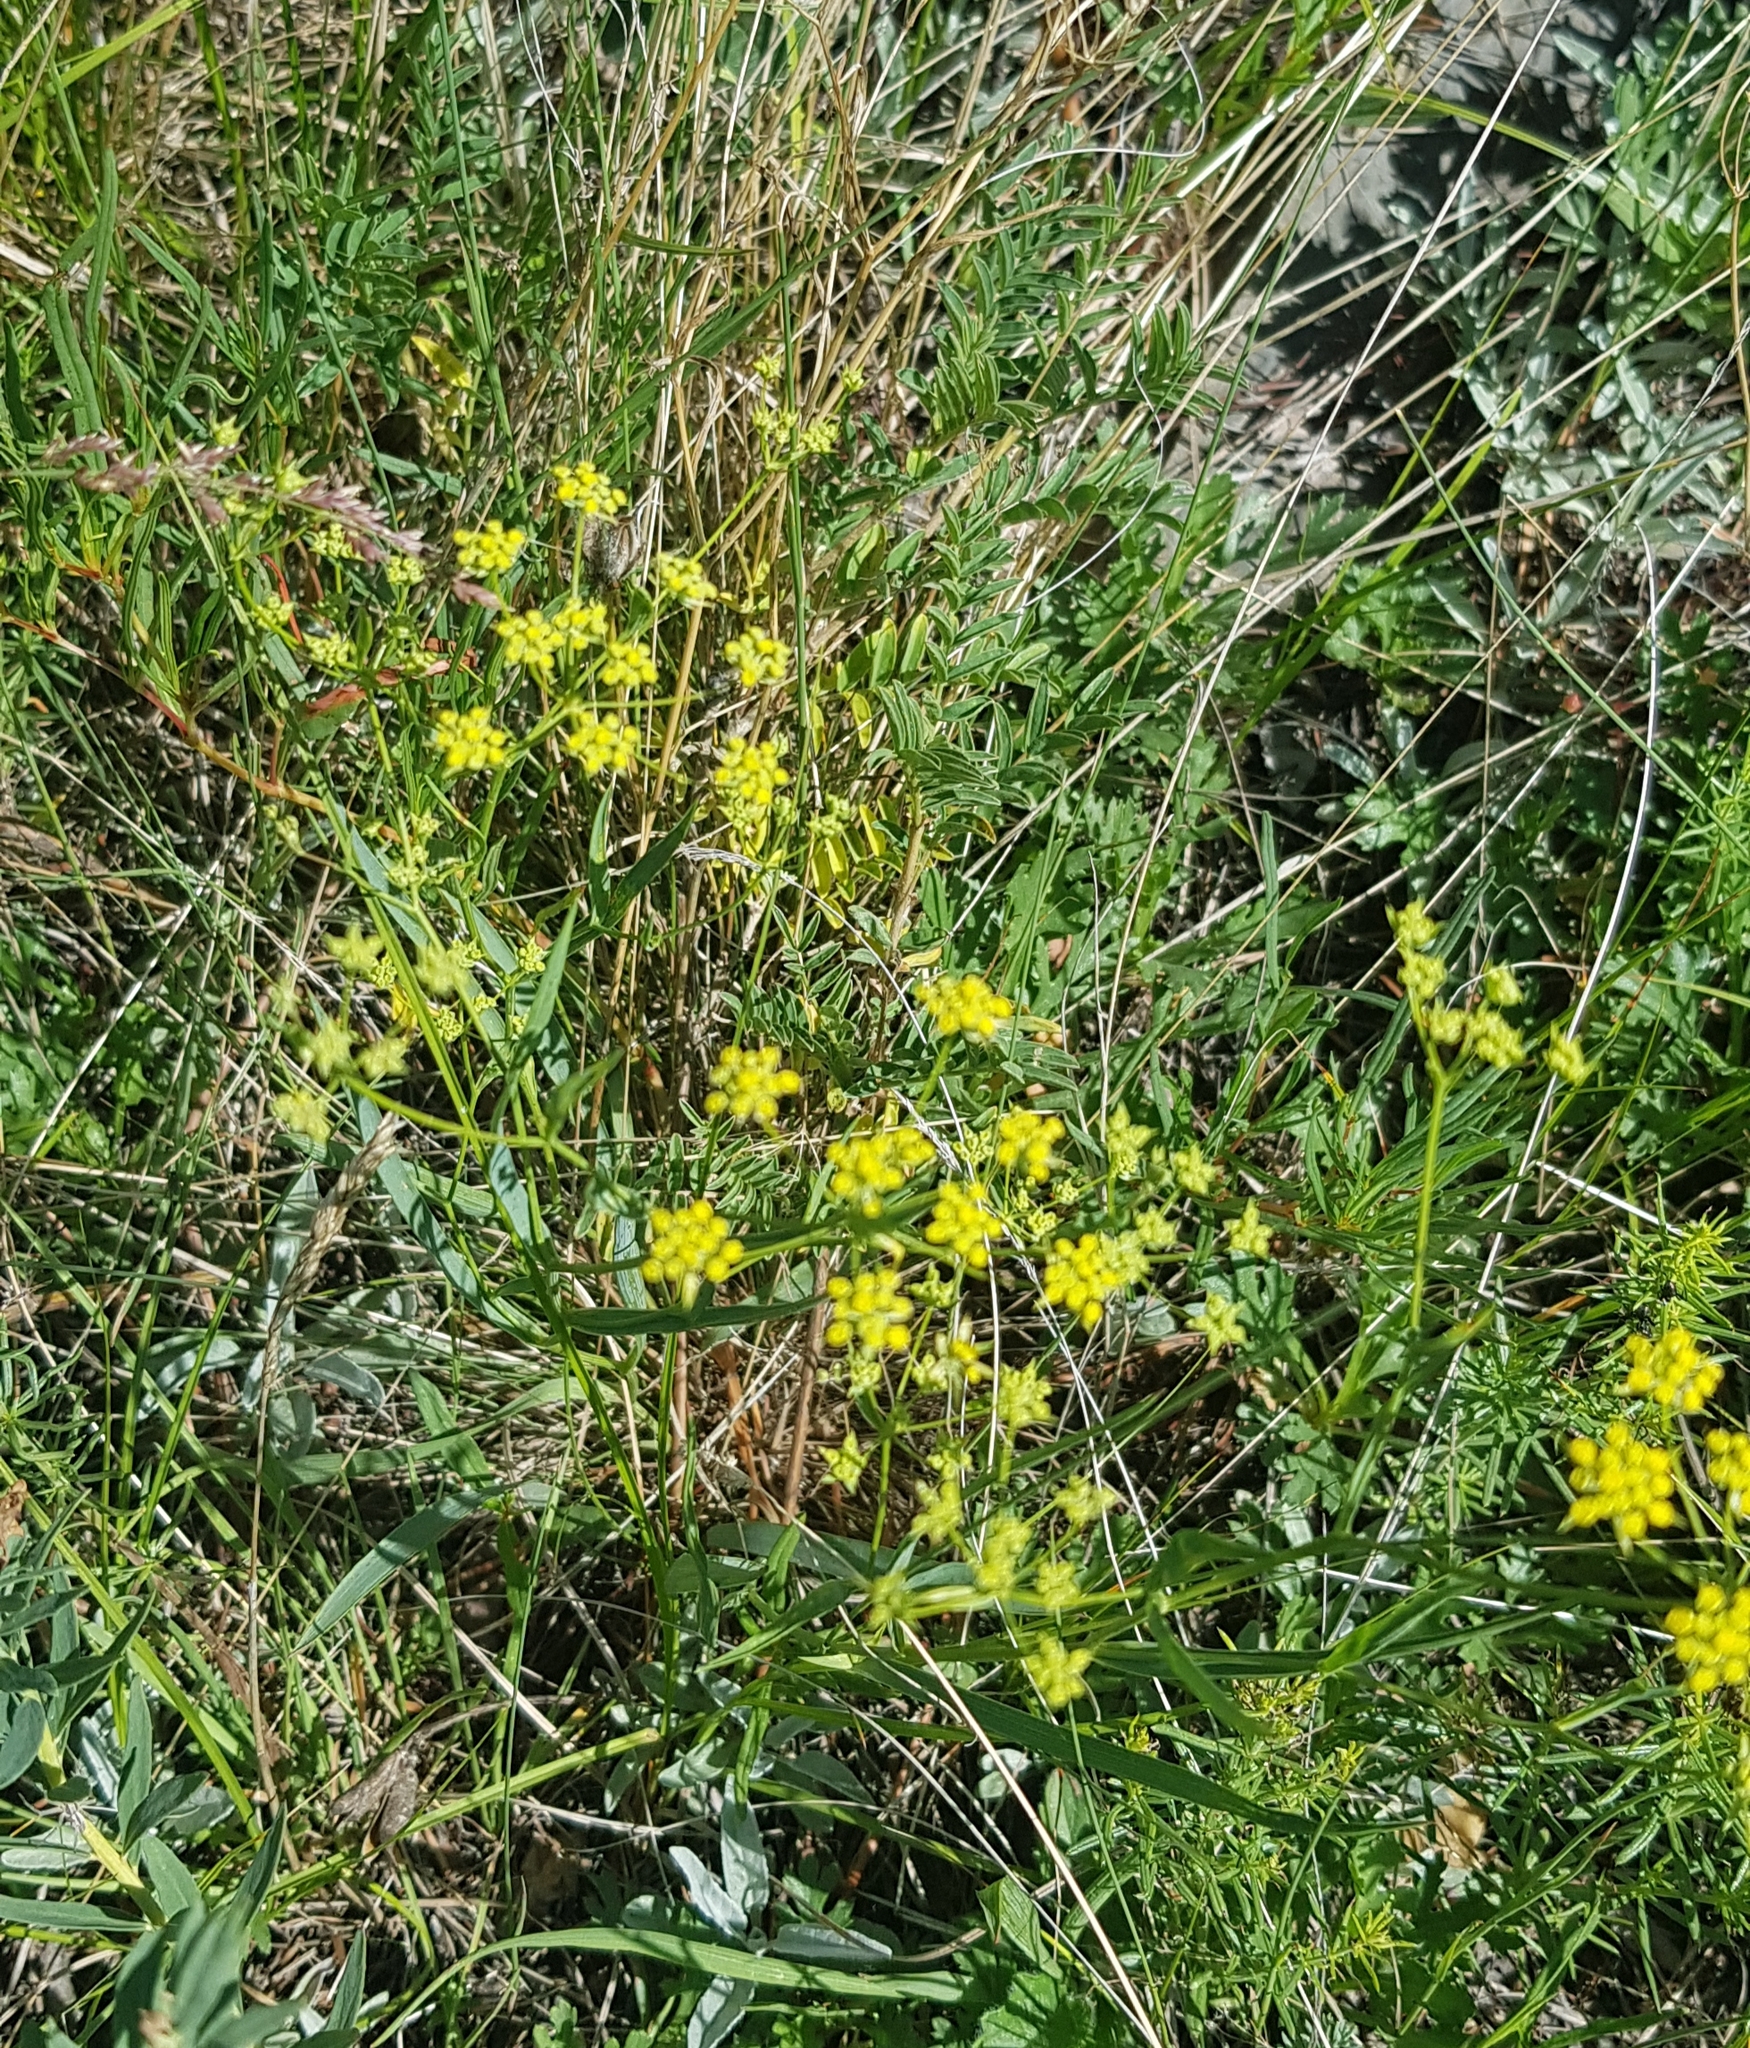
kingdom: Plantae
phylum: Tracheophyta
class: Magnoliopsida
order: Apiales
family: Apiaceae
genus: Bupleurum
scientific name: Bupleurum scorzonerifolium
